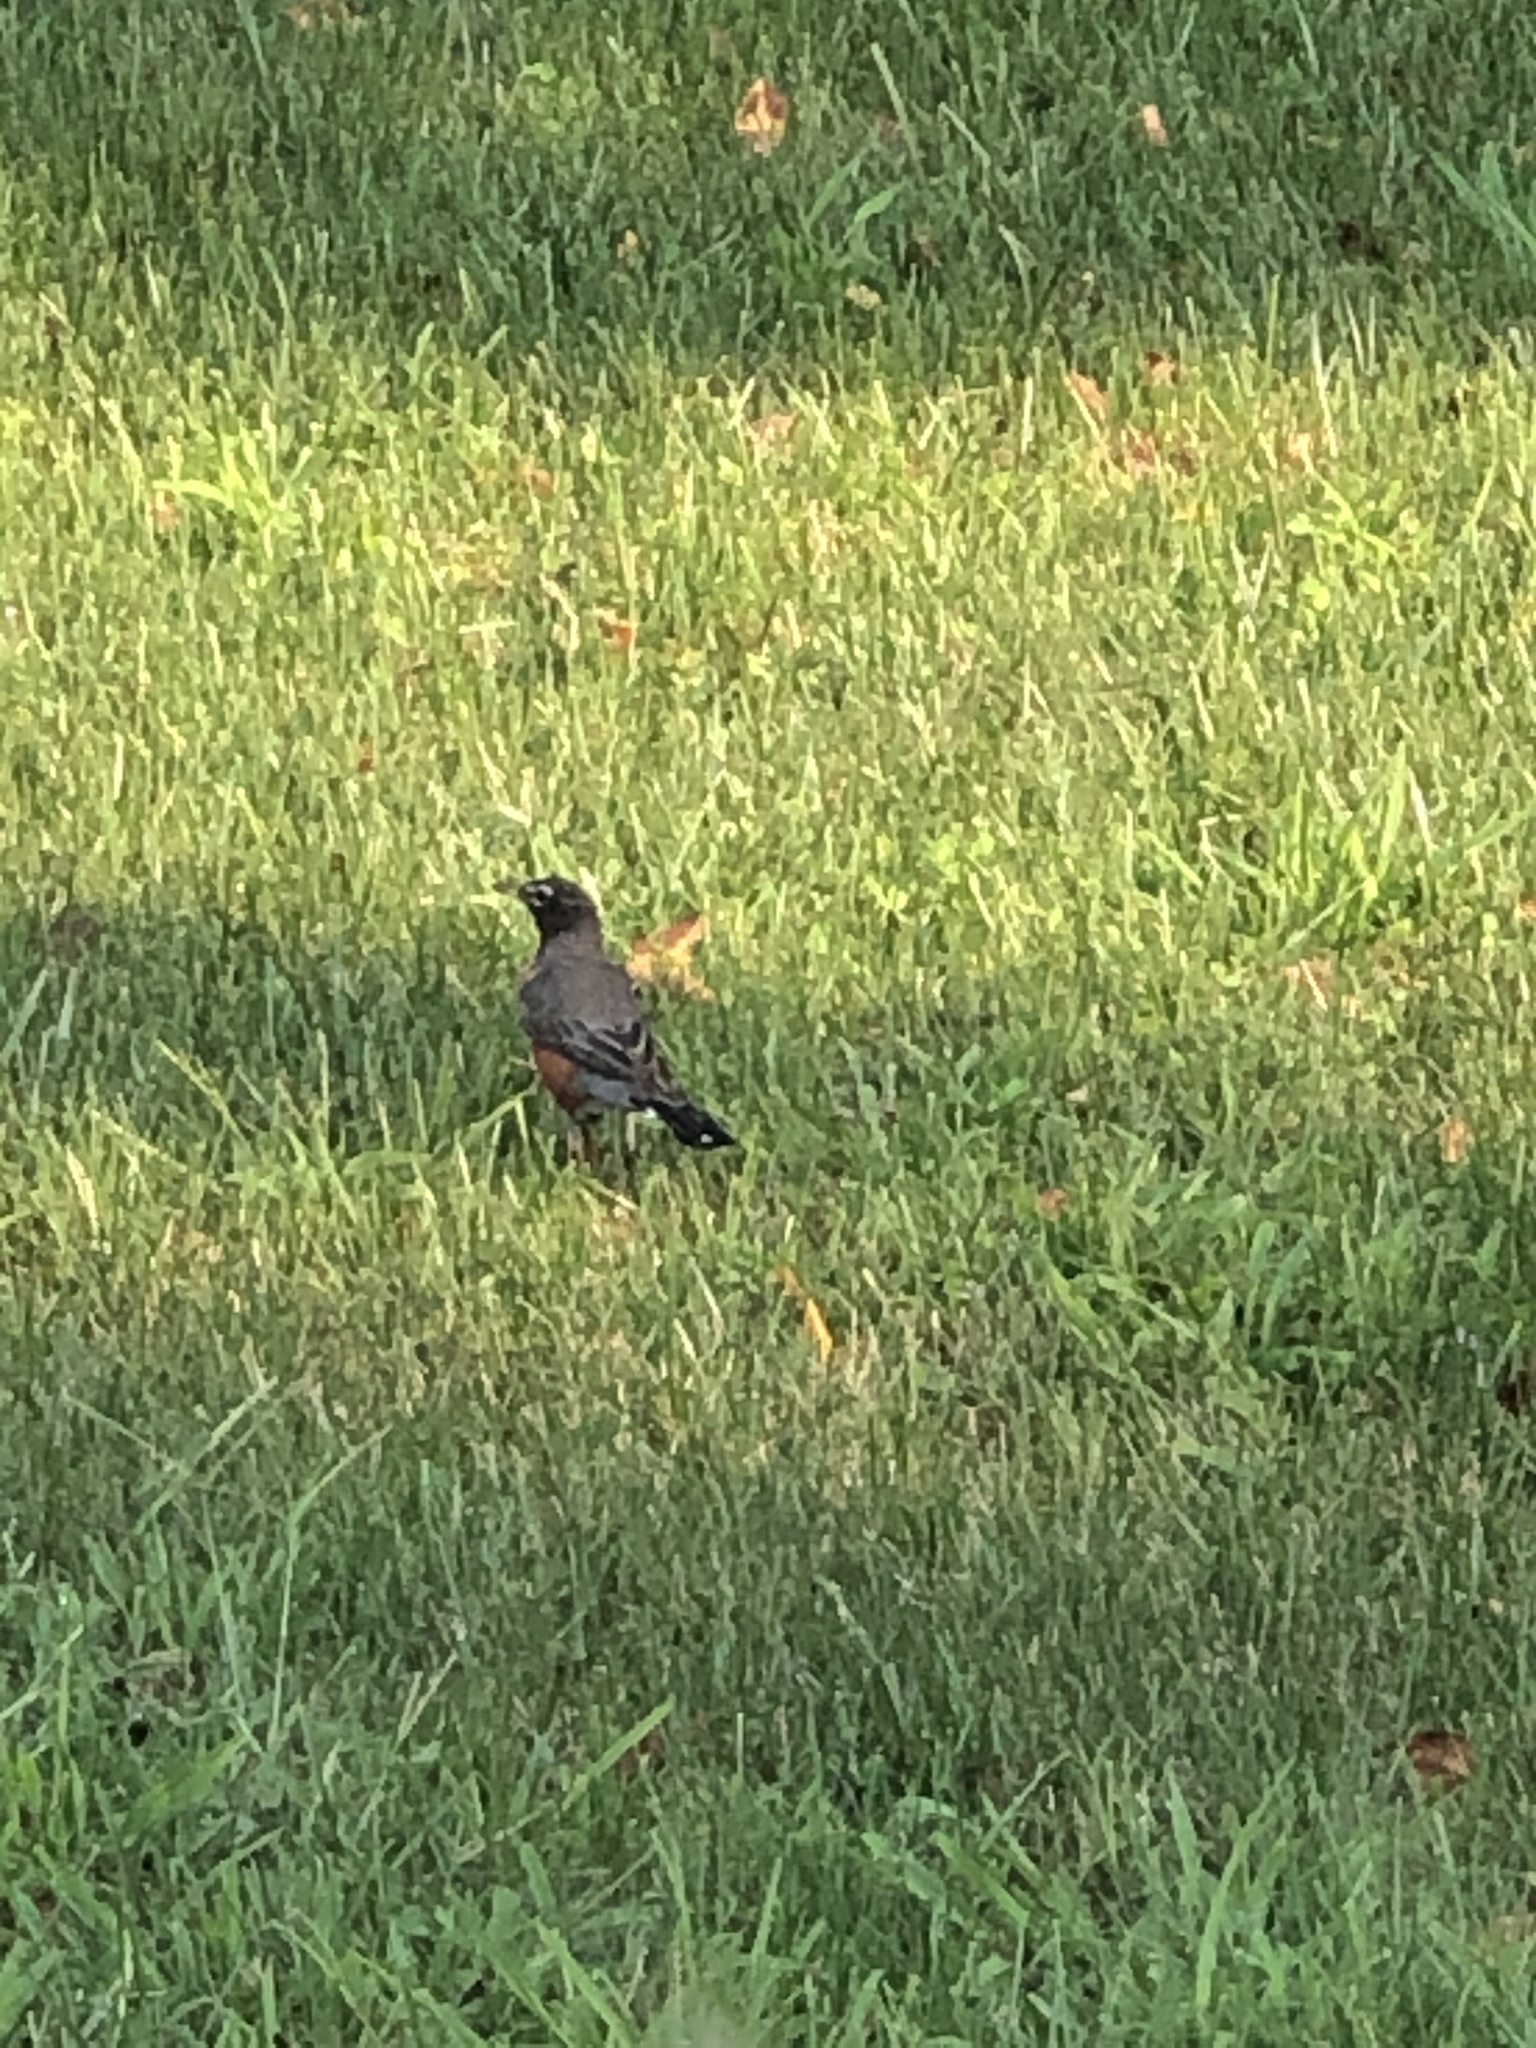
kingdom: Animalia
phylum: Chordata
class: Aves
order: Passeriformes
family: Turdidae
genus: Turdus
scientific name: Turdus migratorius
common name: American robin
